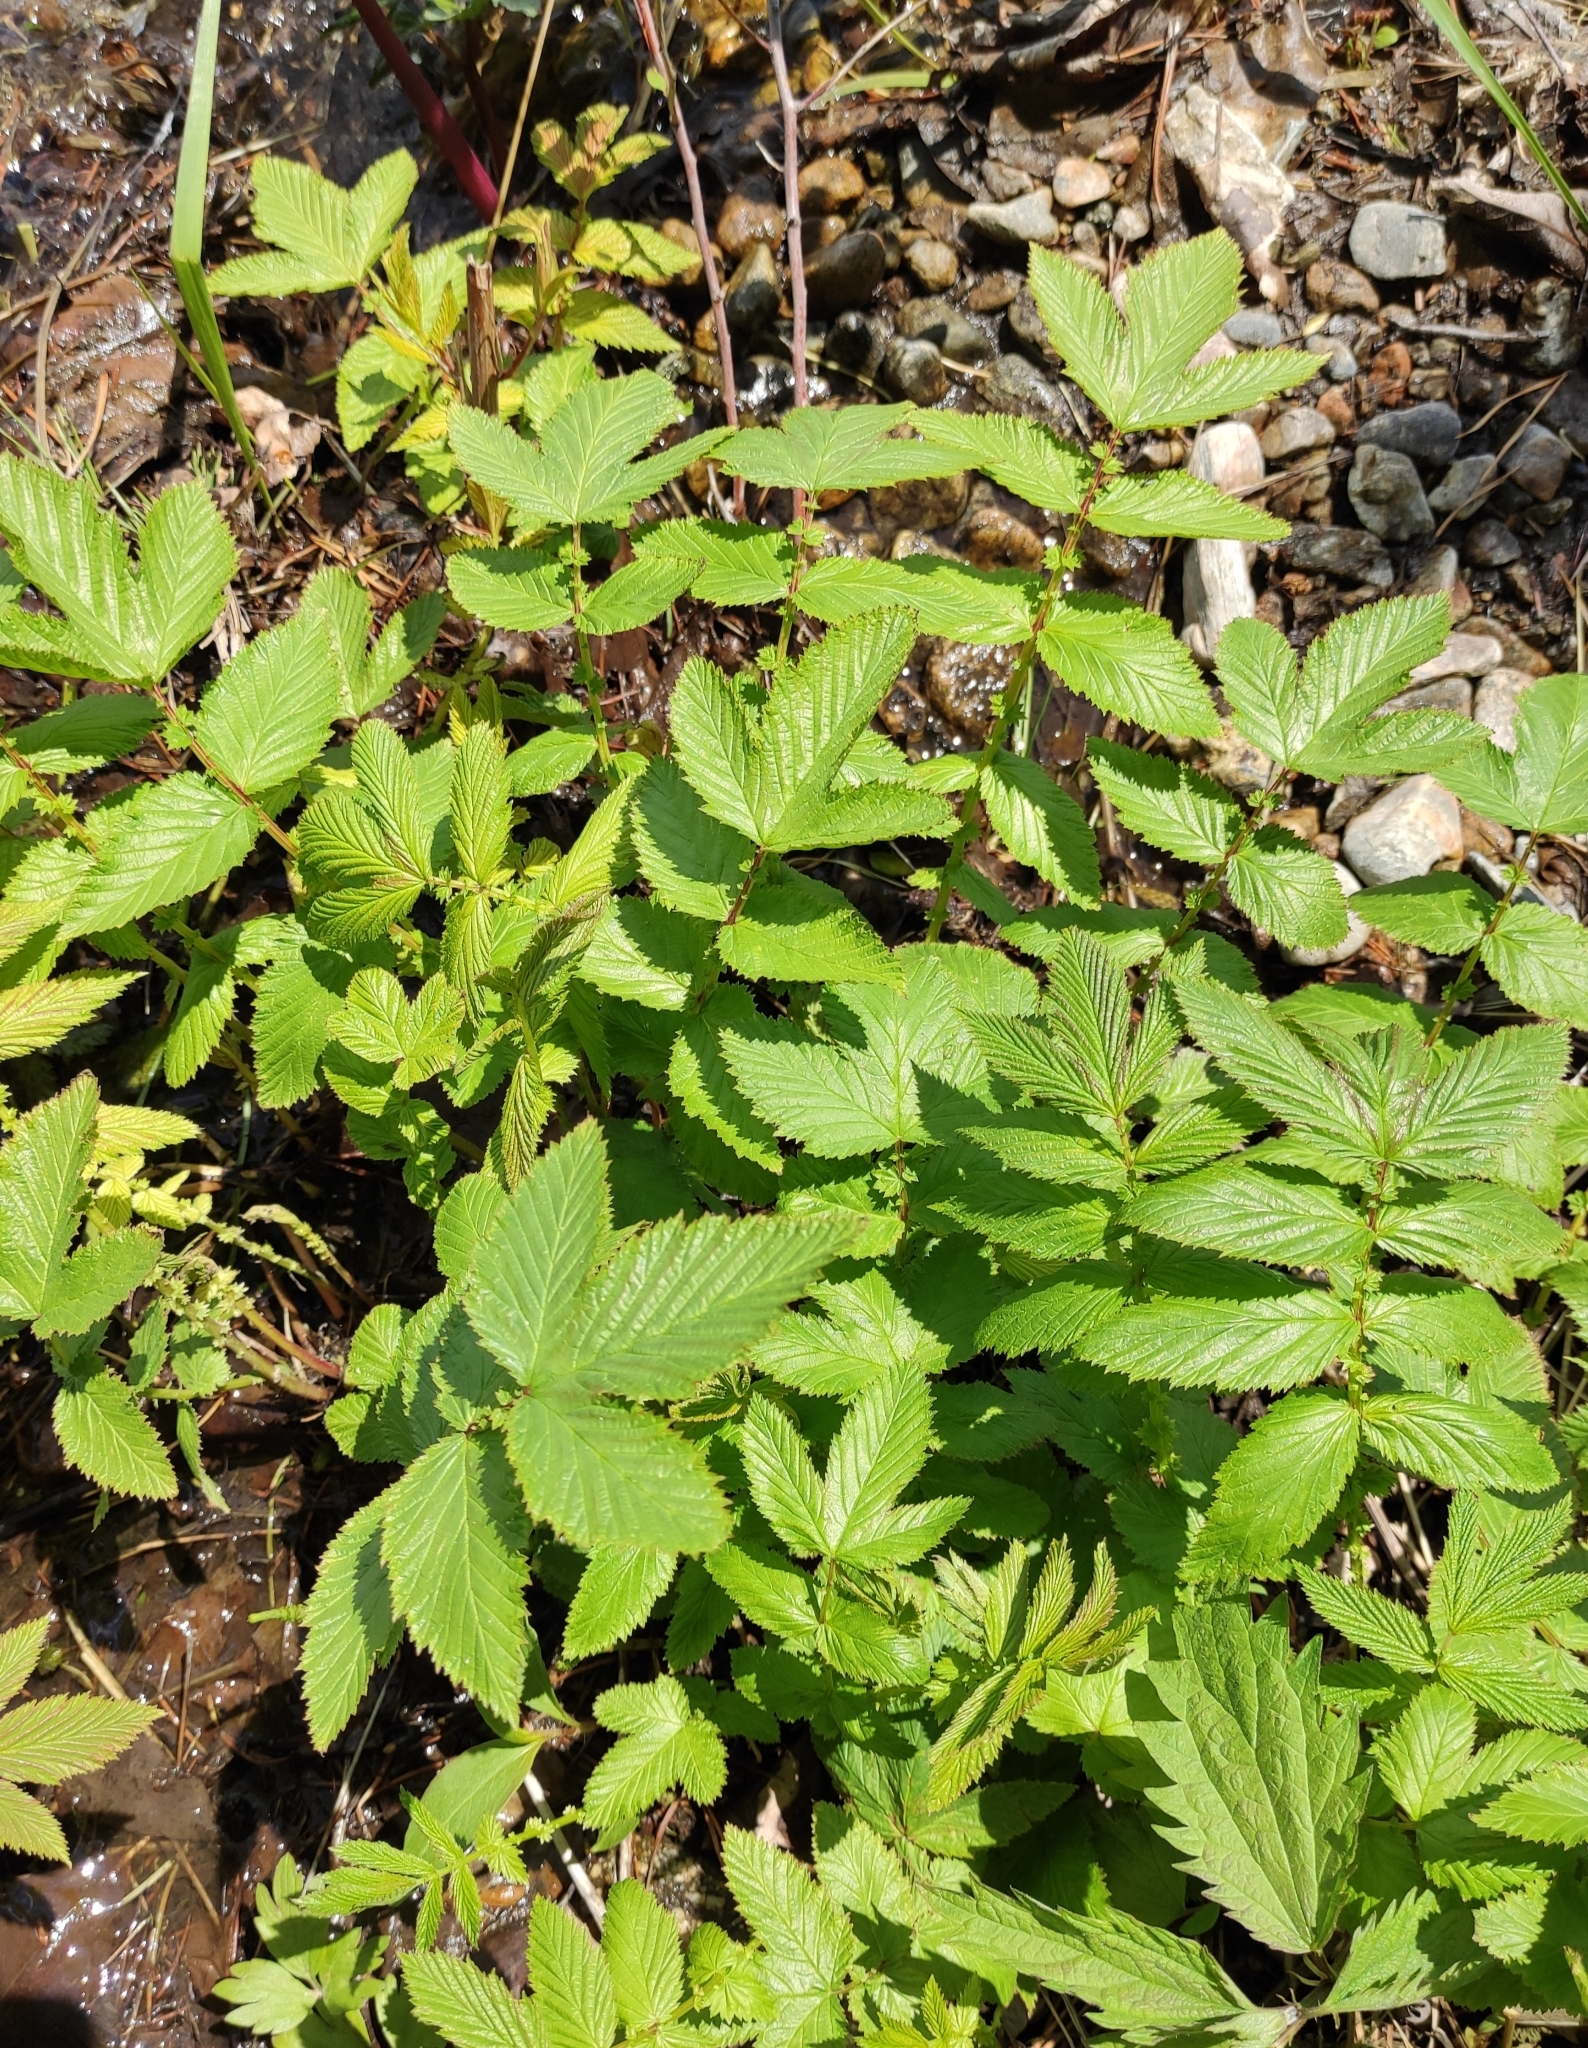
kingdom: Plantae
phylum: Tracheophyta
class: Magnoliopsida
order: Rosales
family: Rosaceae
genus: Filipendula
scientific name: Filipendula ulmaria
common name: Meadowsweet
